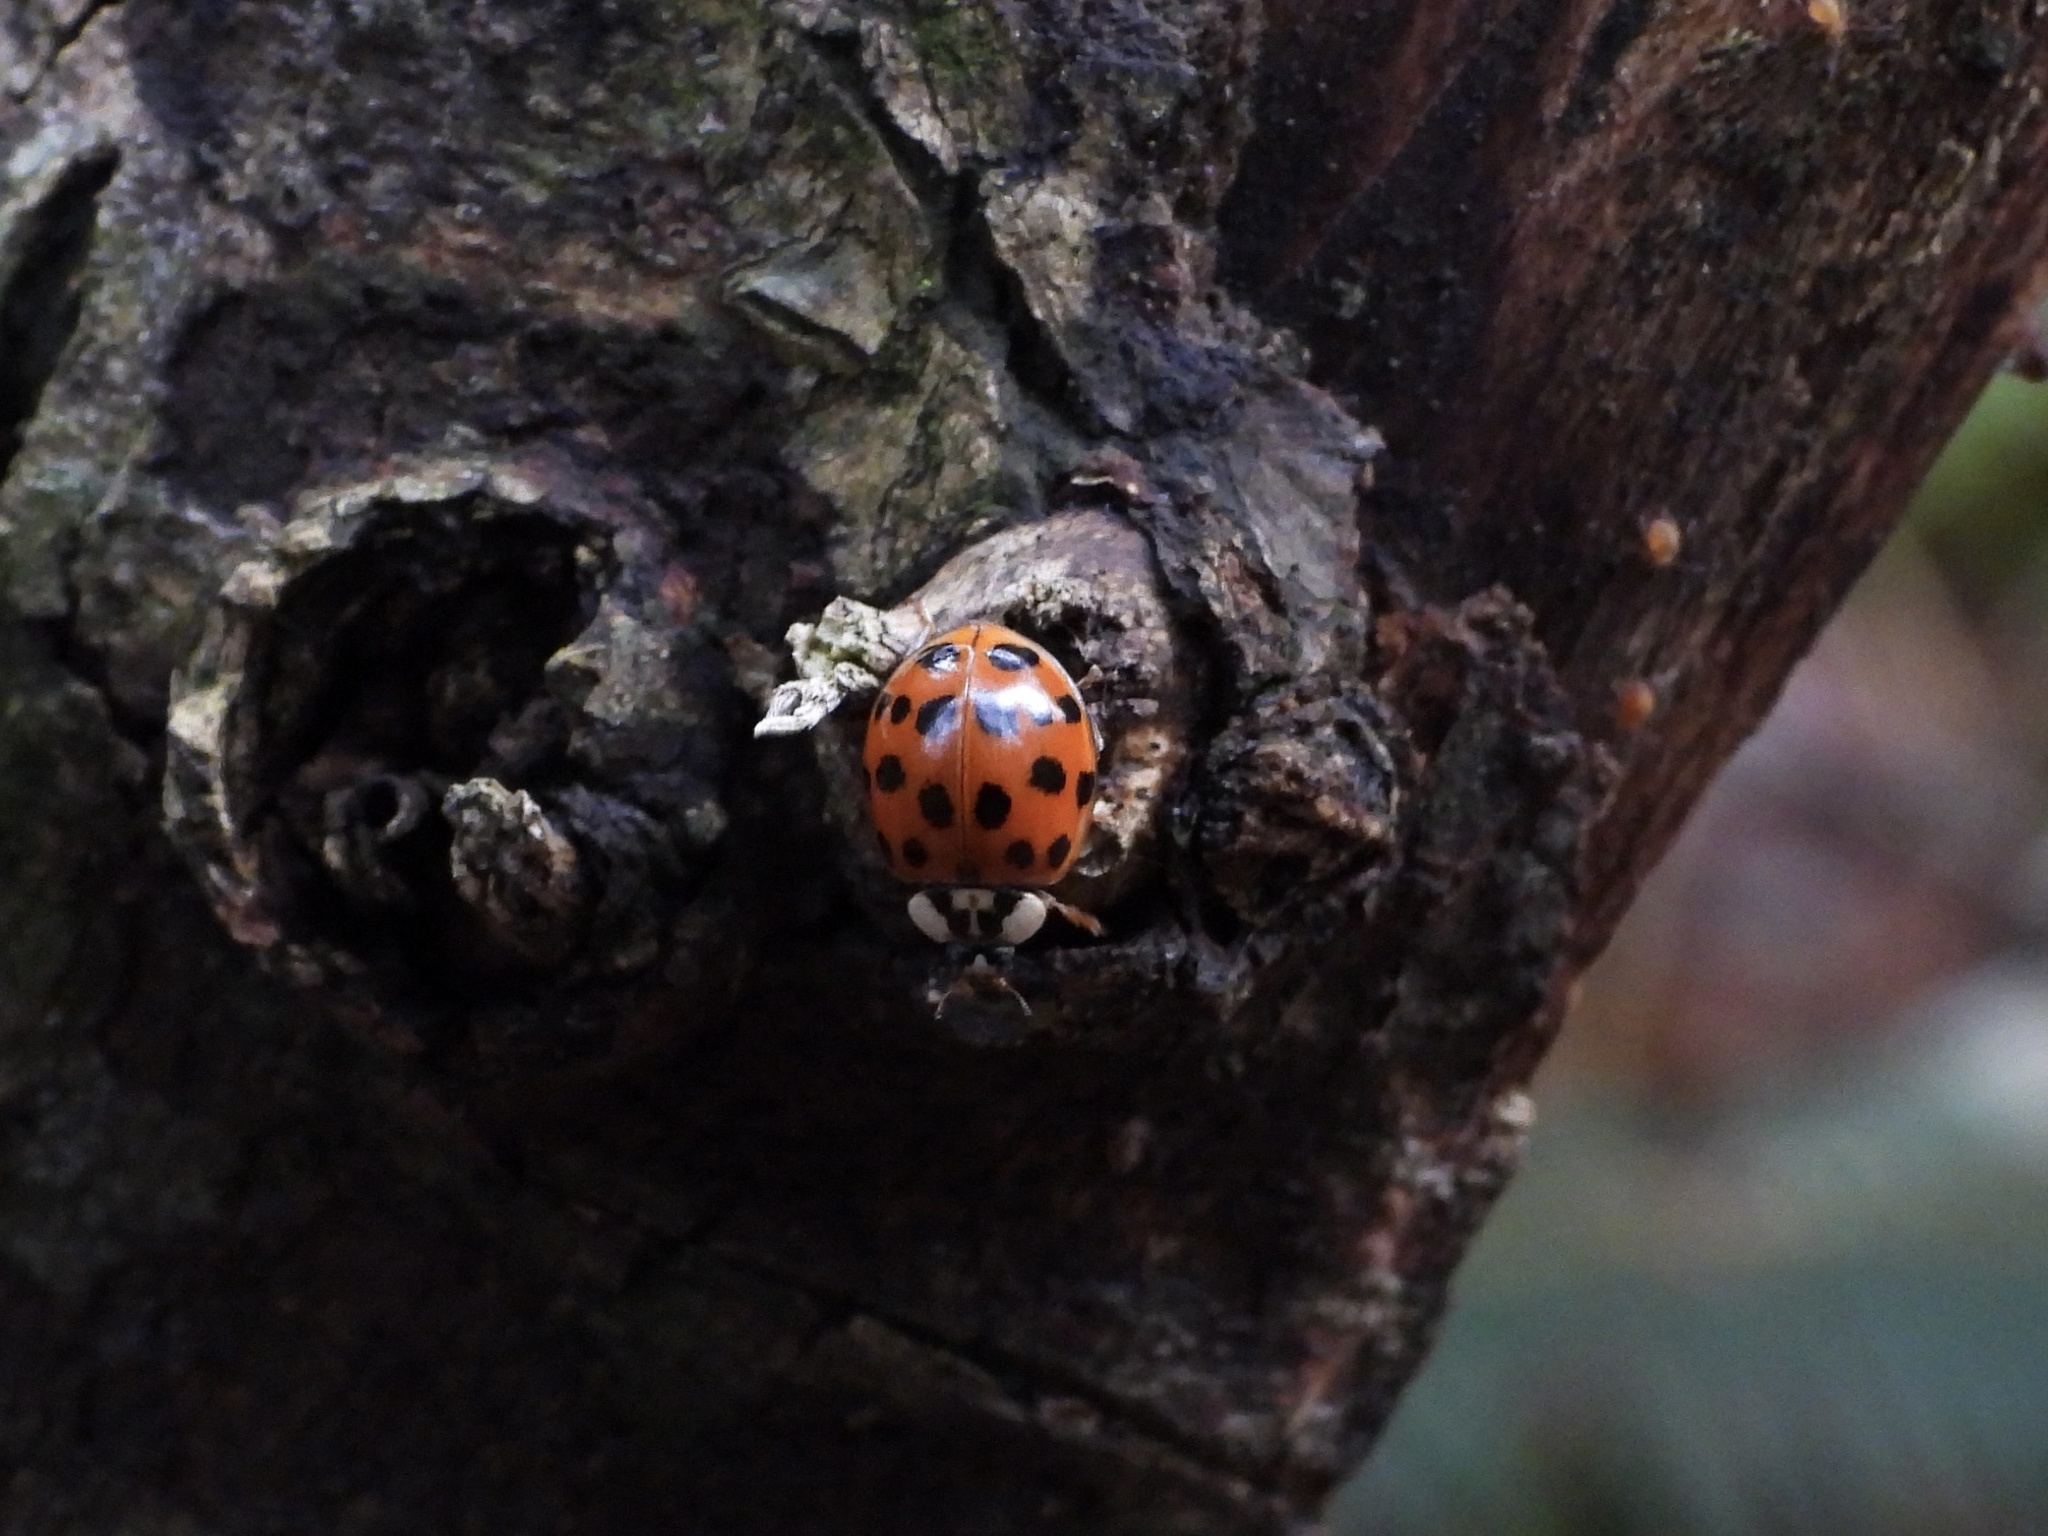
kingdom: Animalia
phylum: Arthropoda
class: Insecta
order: Coleoptera
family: Coccinellidae
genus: Harmonia
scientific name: Harmonia axyridis
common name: Harlequin ladybird
